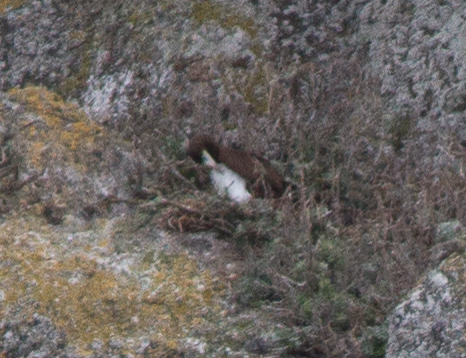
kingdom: Animalia
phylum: Chordata
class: Aves
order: Suliformes
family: Sulidae
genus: Sula
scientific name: Sula leucogaster
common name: Brown booby
